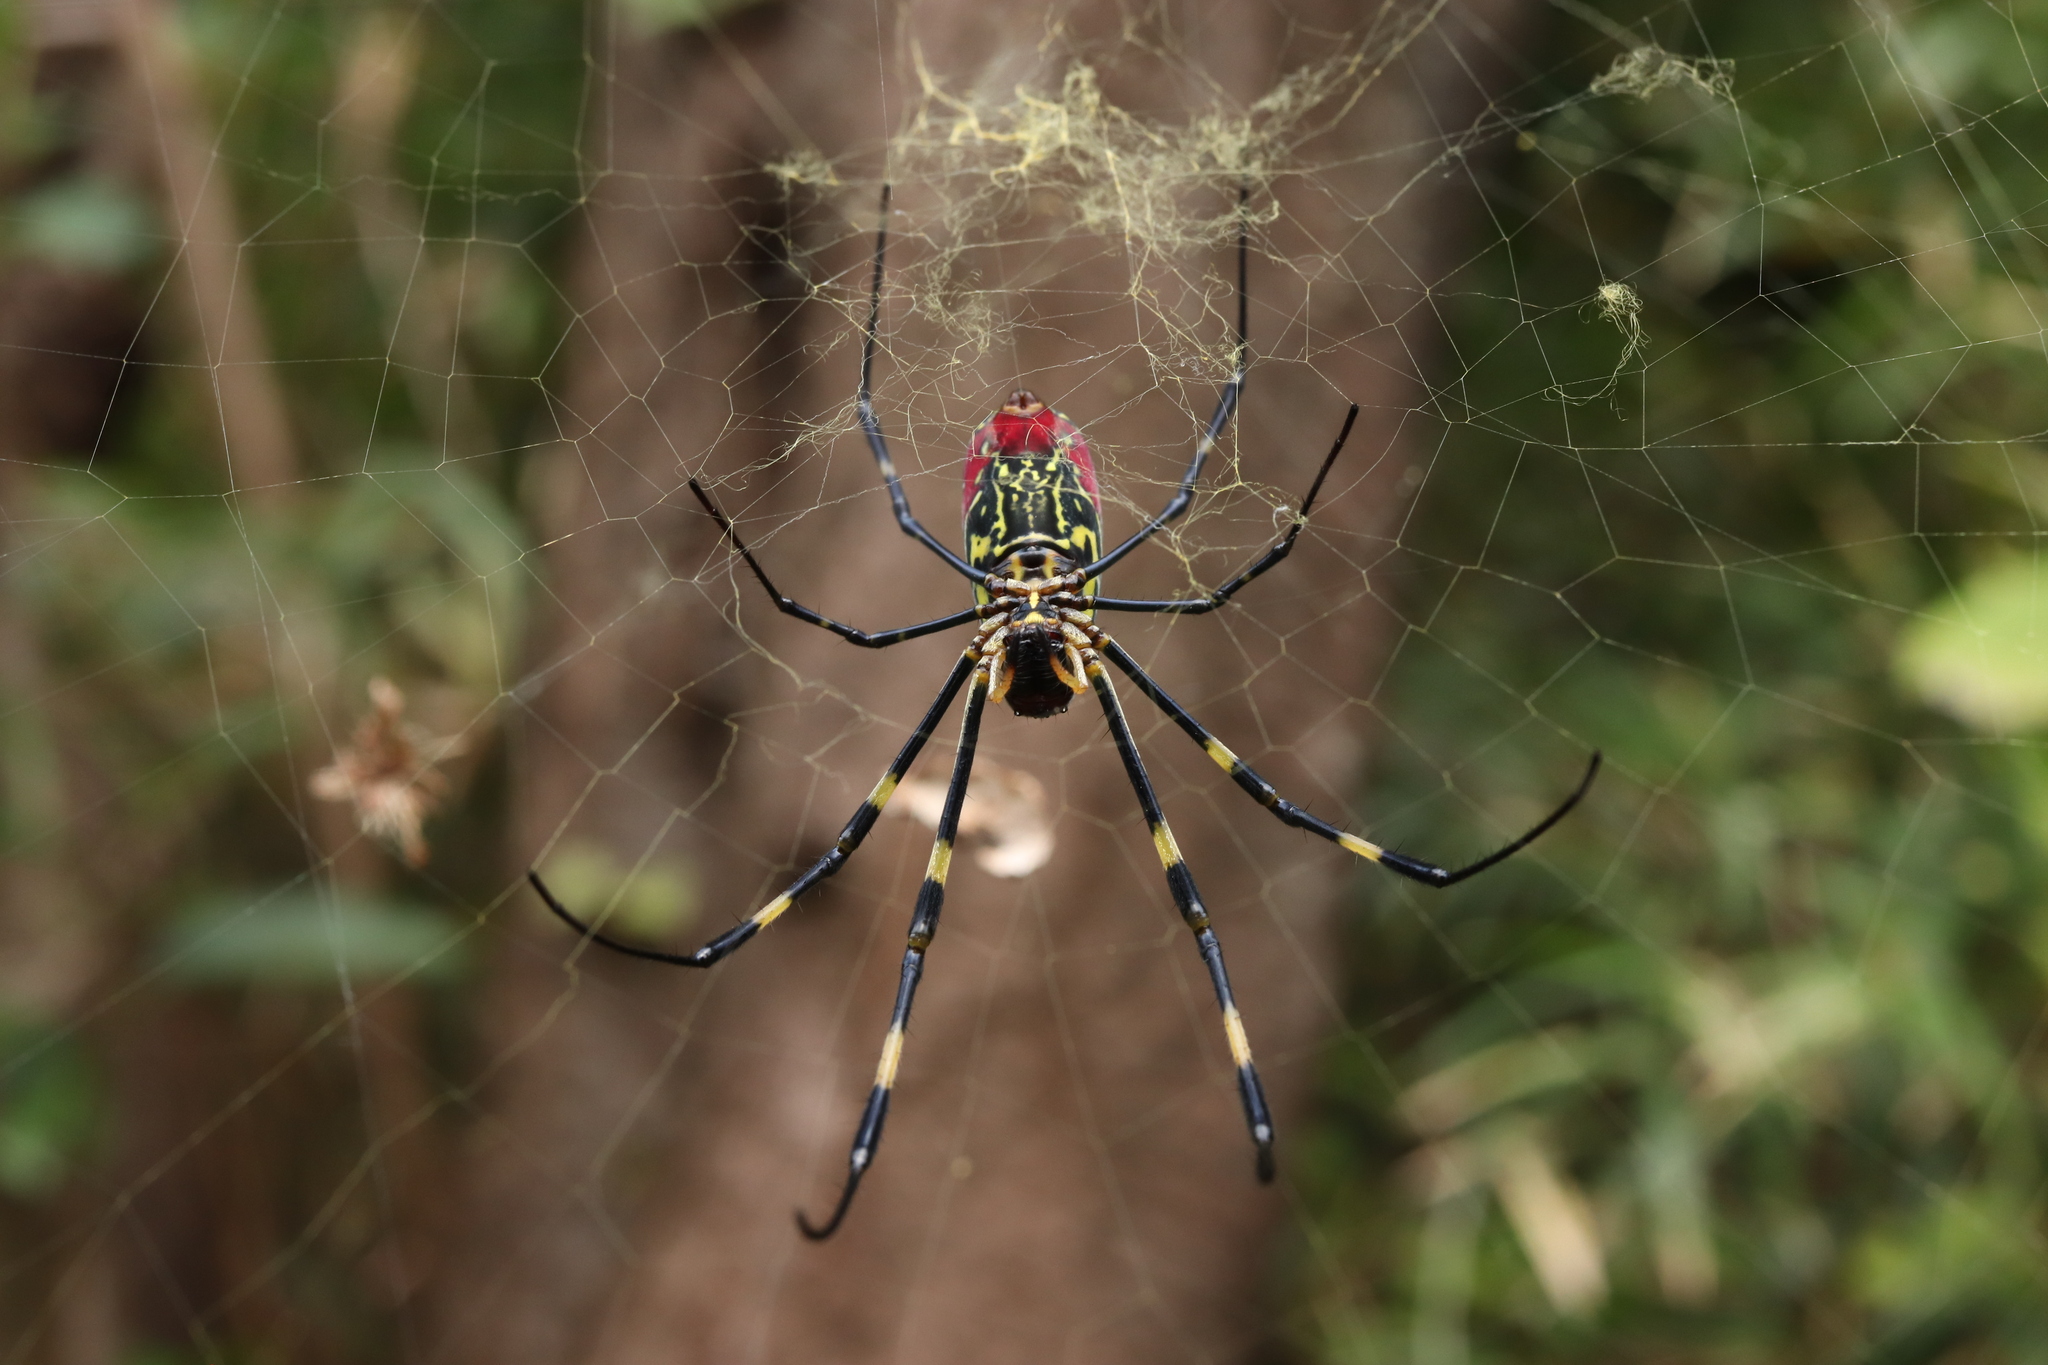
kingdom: Animalia
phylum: Arthropoda
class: Arachnida
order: Araneae
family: Araneidae
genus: Trichonephila
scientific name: Trichonephila clavata
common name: Jorō spider
